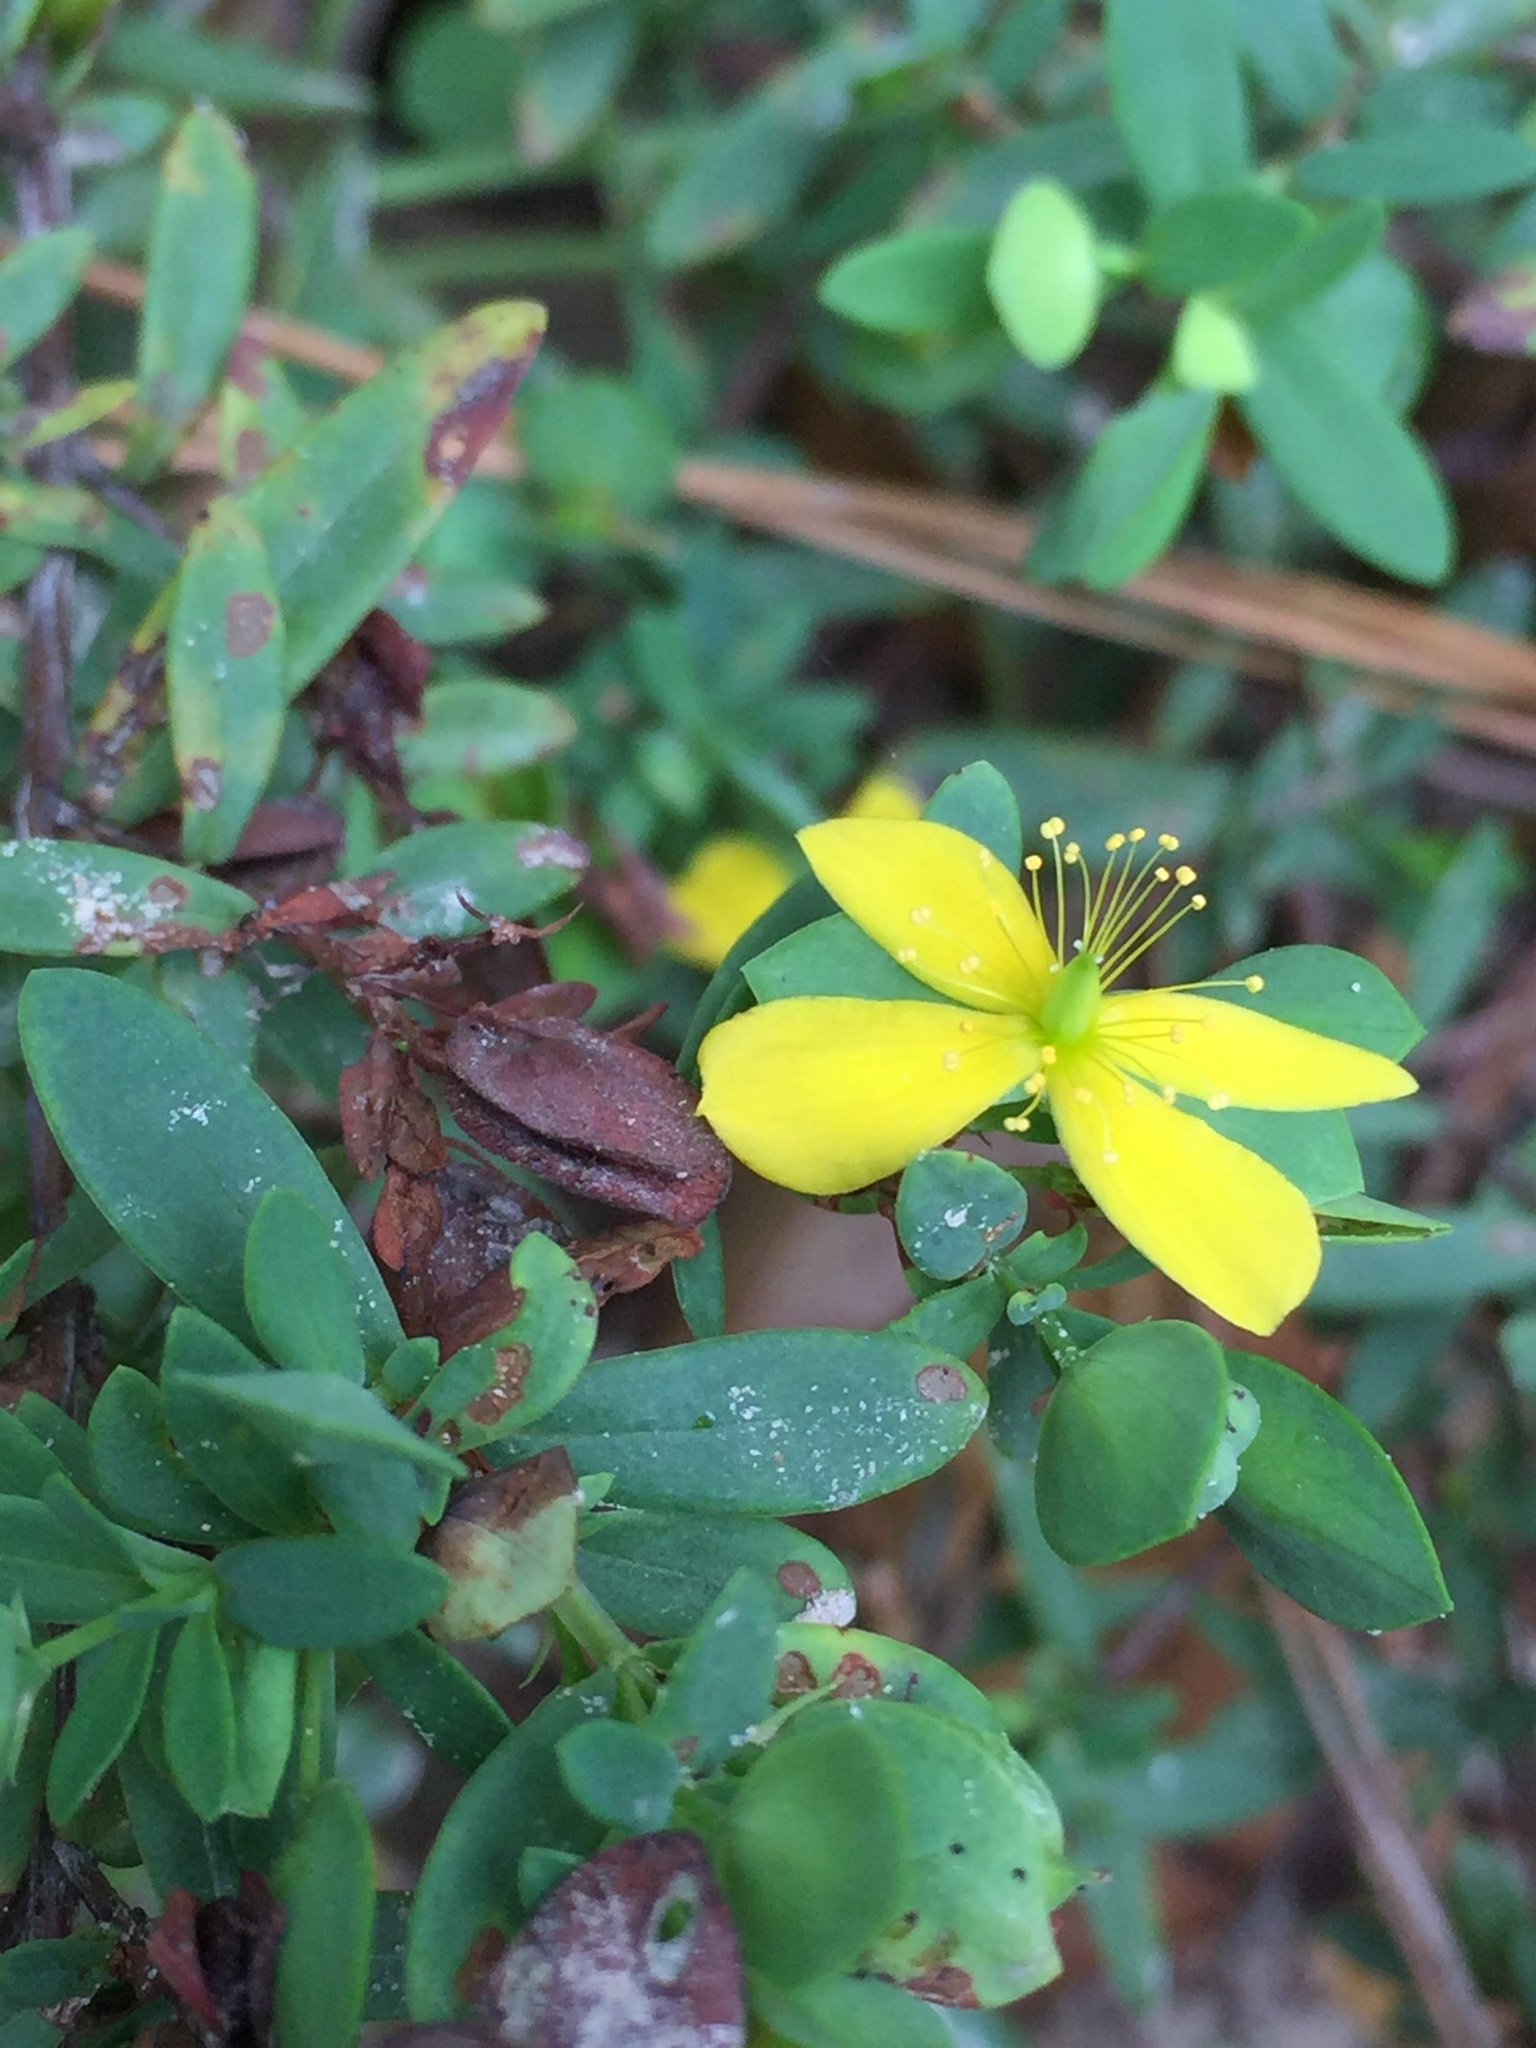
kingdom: Plantae
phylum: Tracheophyta
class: Magnoliopsida
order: Malpighiales
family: Hypericaceae
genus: Hypericum
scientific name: Hypericum hypericoides
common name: St. andrew's cross
